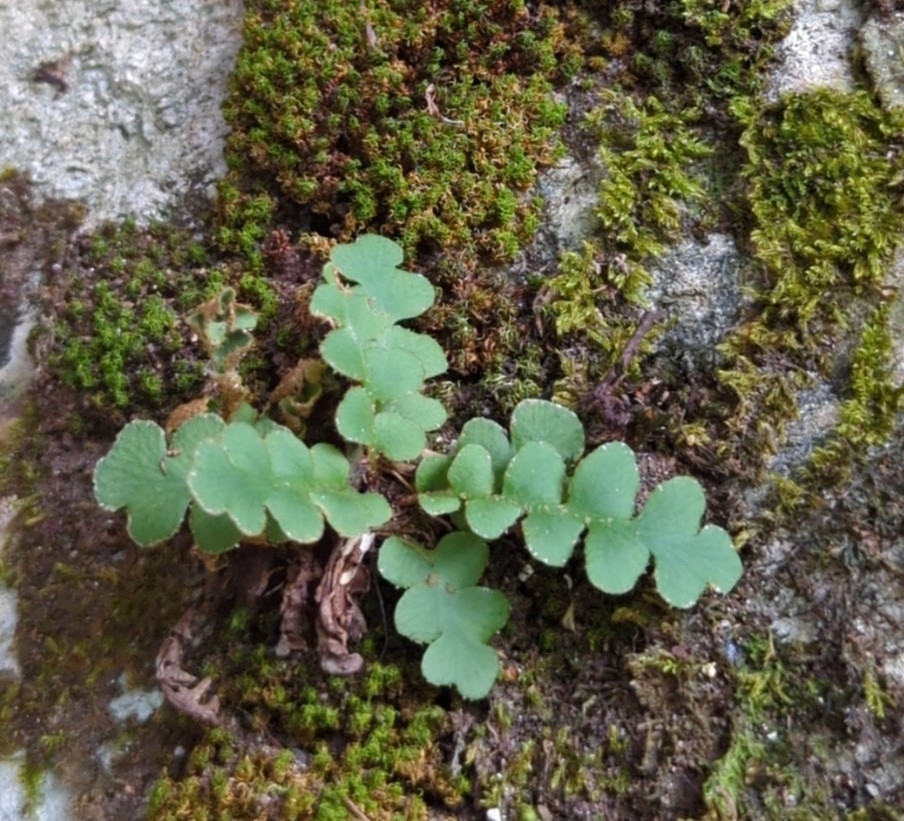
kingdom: Plantae
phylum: Tracheophyta
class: Polypodiopsida
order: Polypodiales
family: Aspleniaceae
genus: Asplenium
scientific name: Asplenium ceterach
